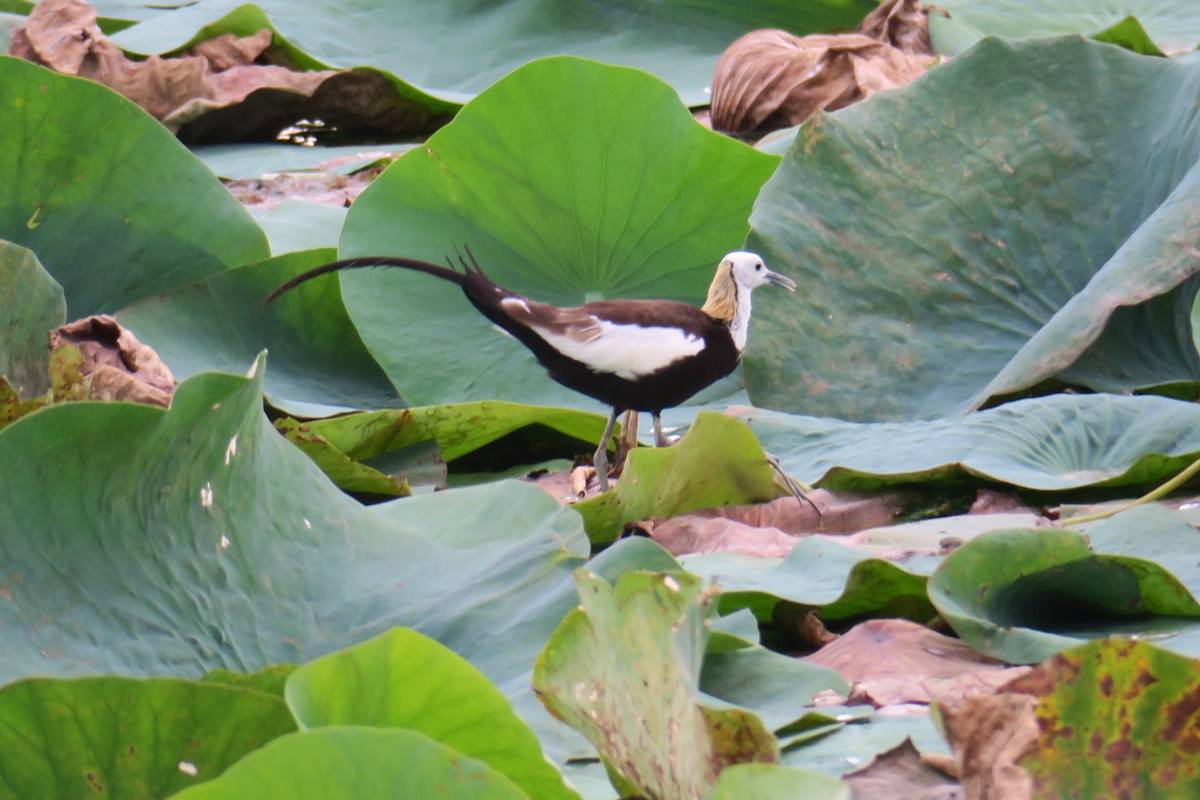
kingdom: Animalia
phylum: Chordata
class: Aves
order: Charadriiformes
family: Jacanidae
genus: Hydrophasianus
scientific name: Hydrophasianus chirurgus
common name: Pheasant-tailed jacana
